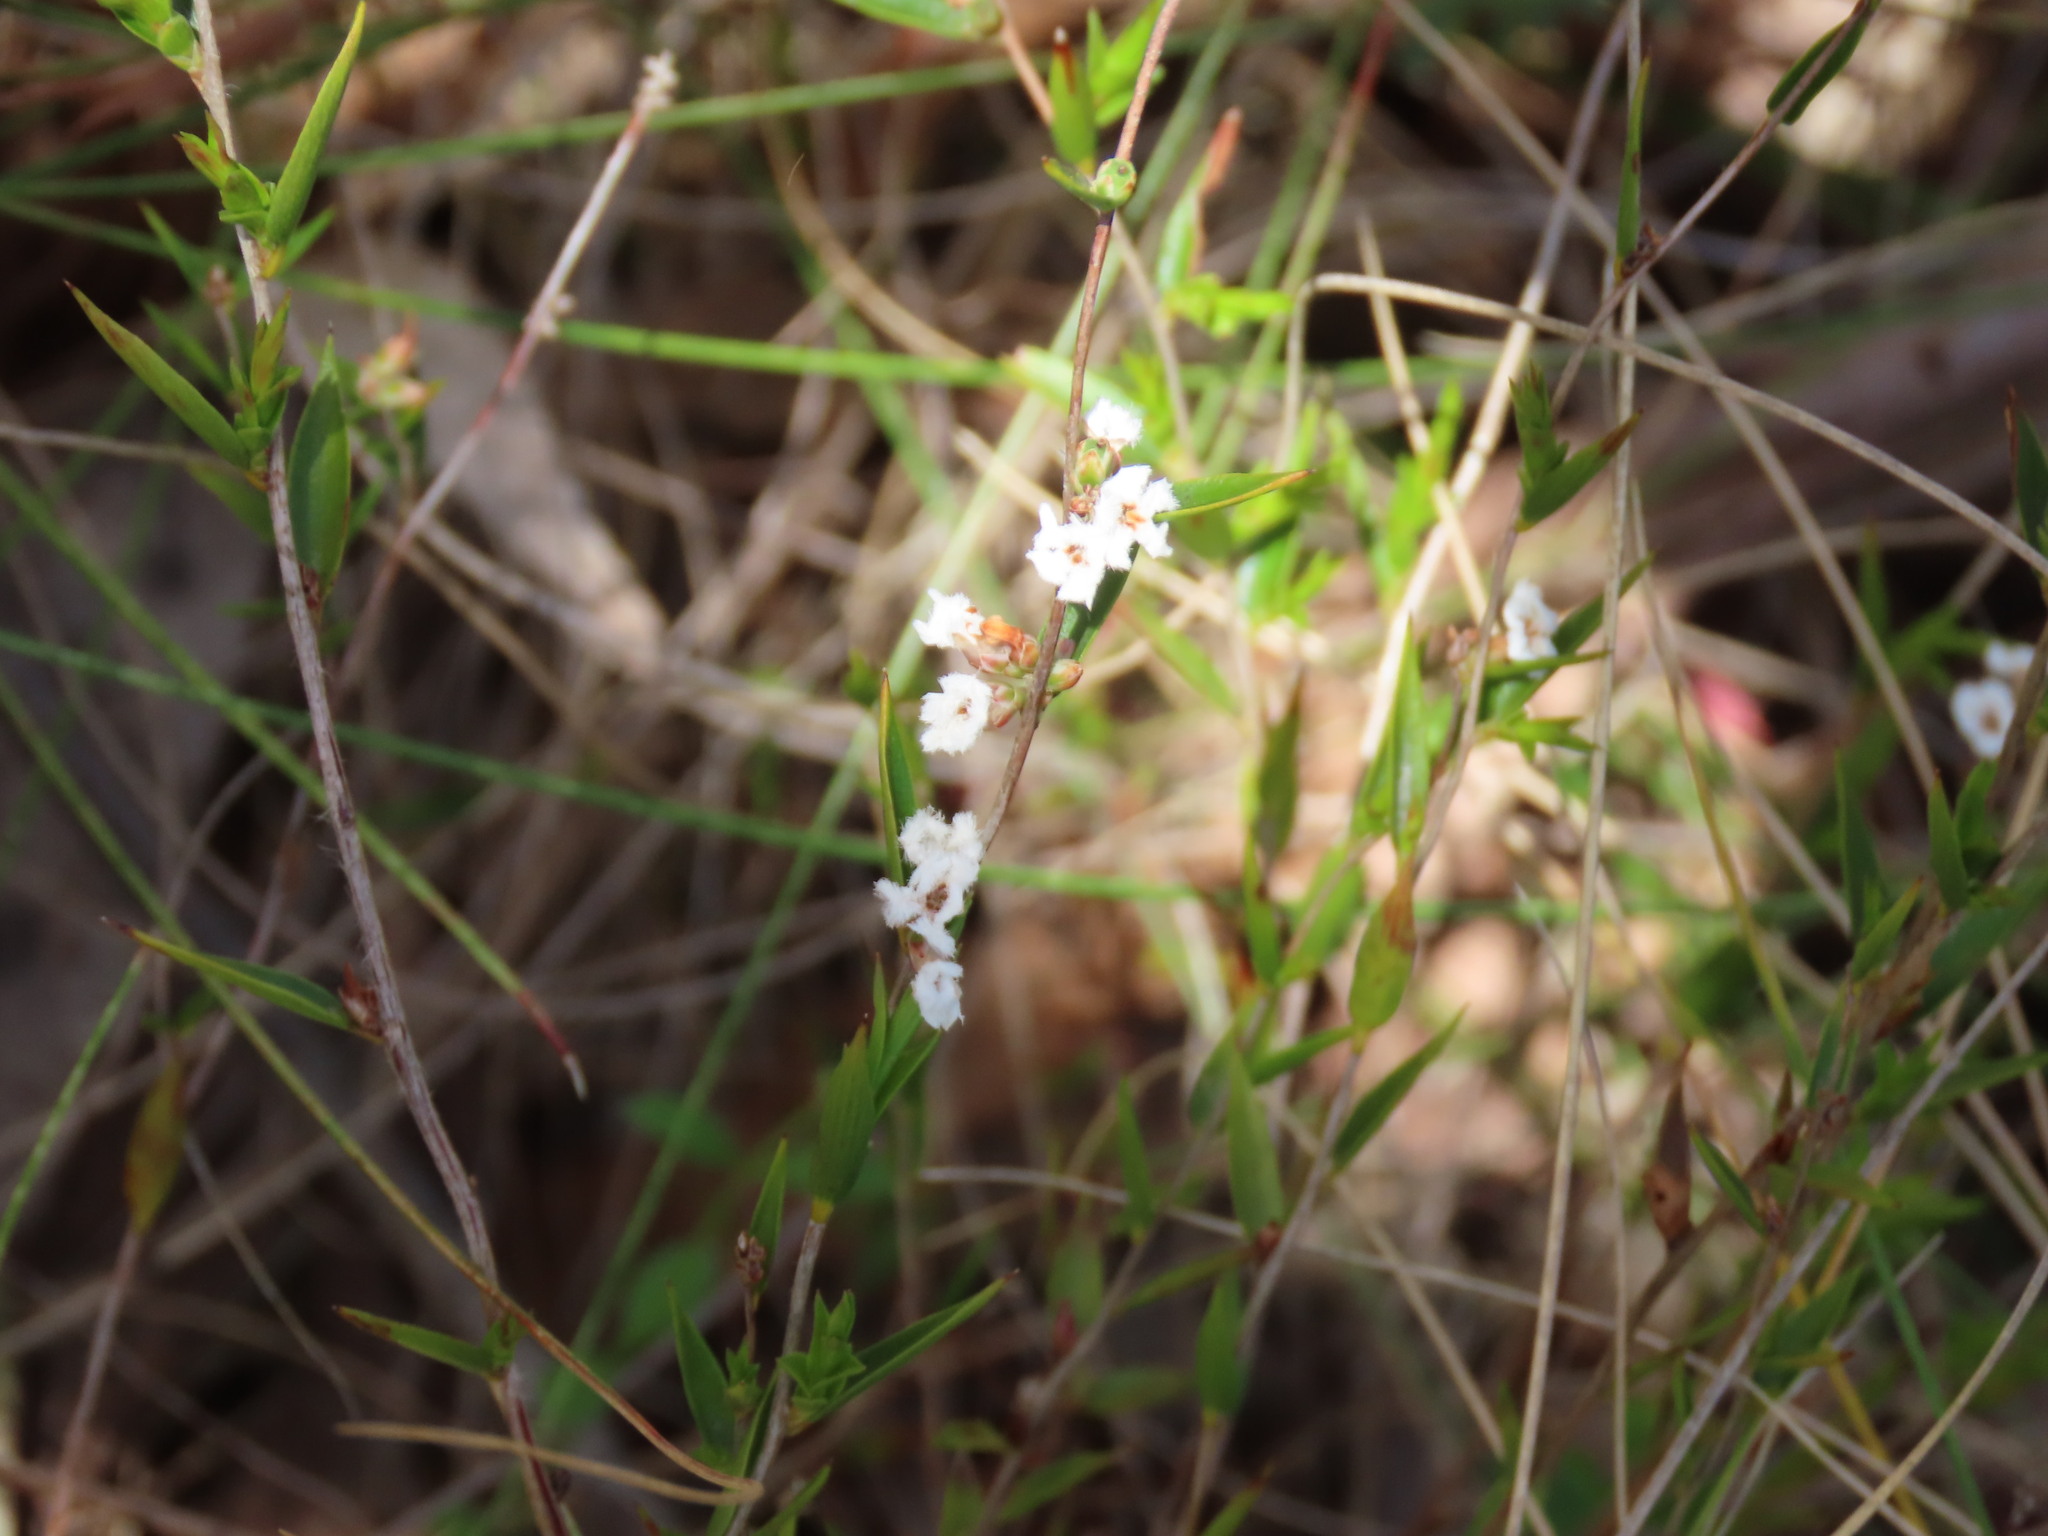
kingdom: Plantae
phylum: Tracheophyta
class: Magnoliopsida
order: Ericales
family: Ericaceae
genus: Leucopogon
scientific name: Leucopogon virgatus
